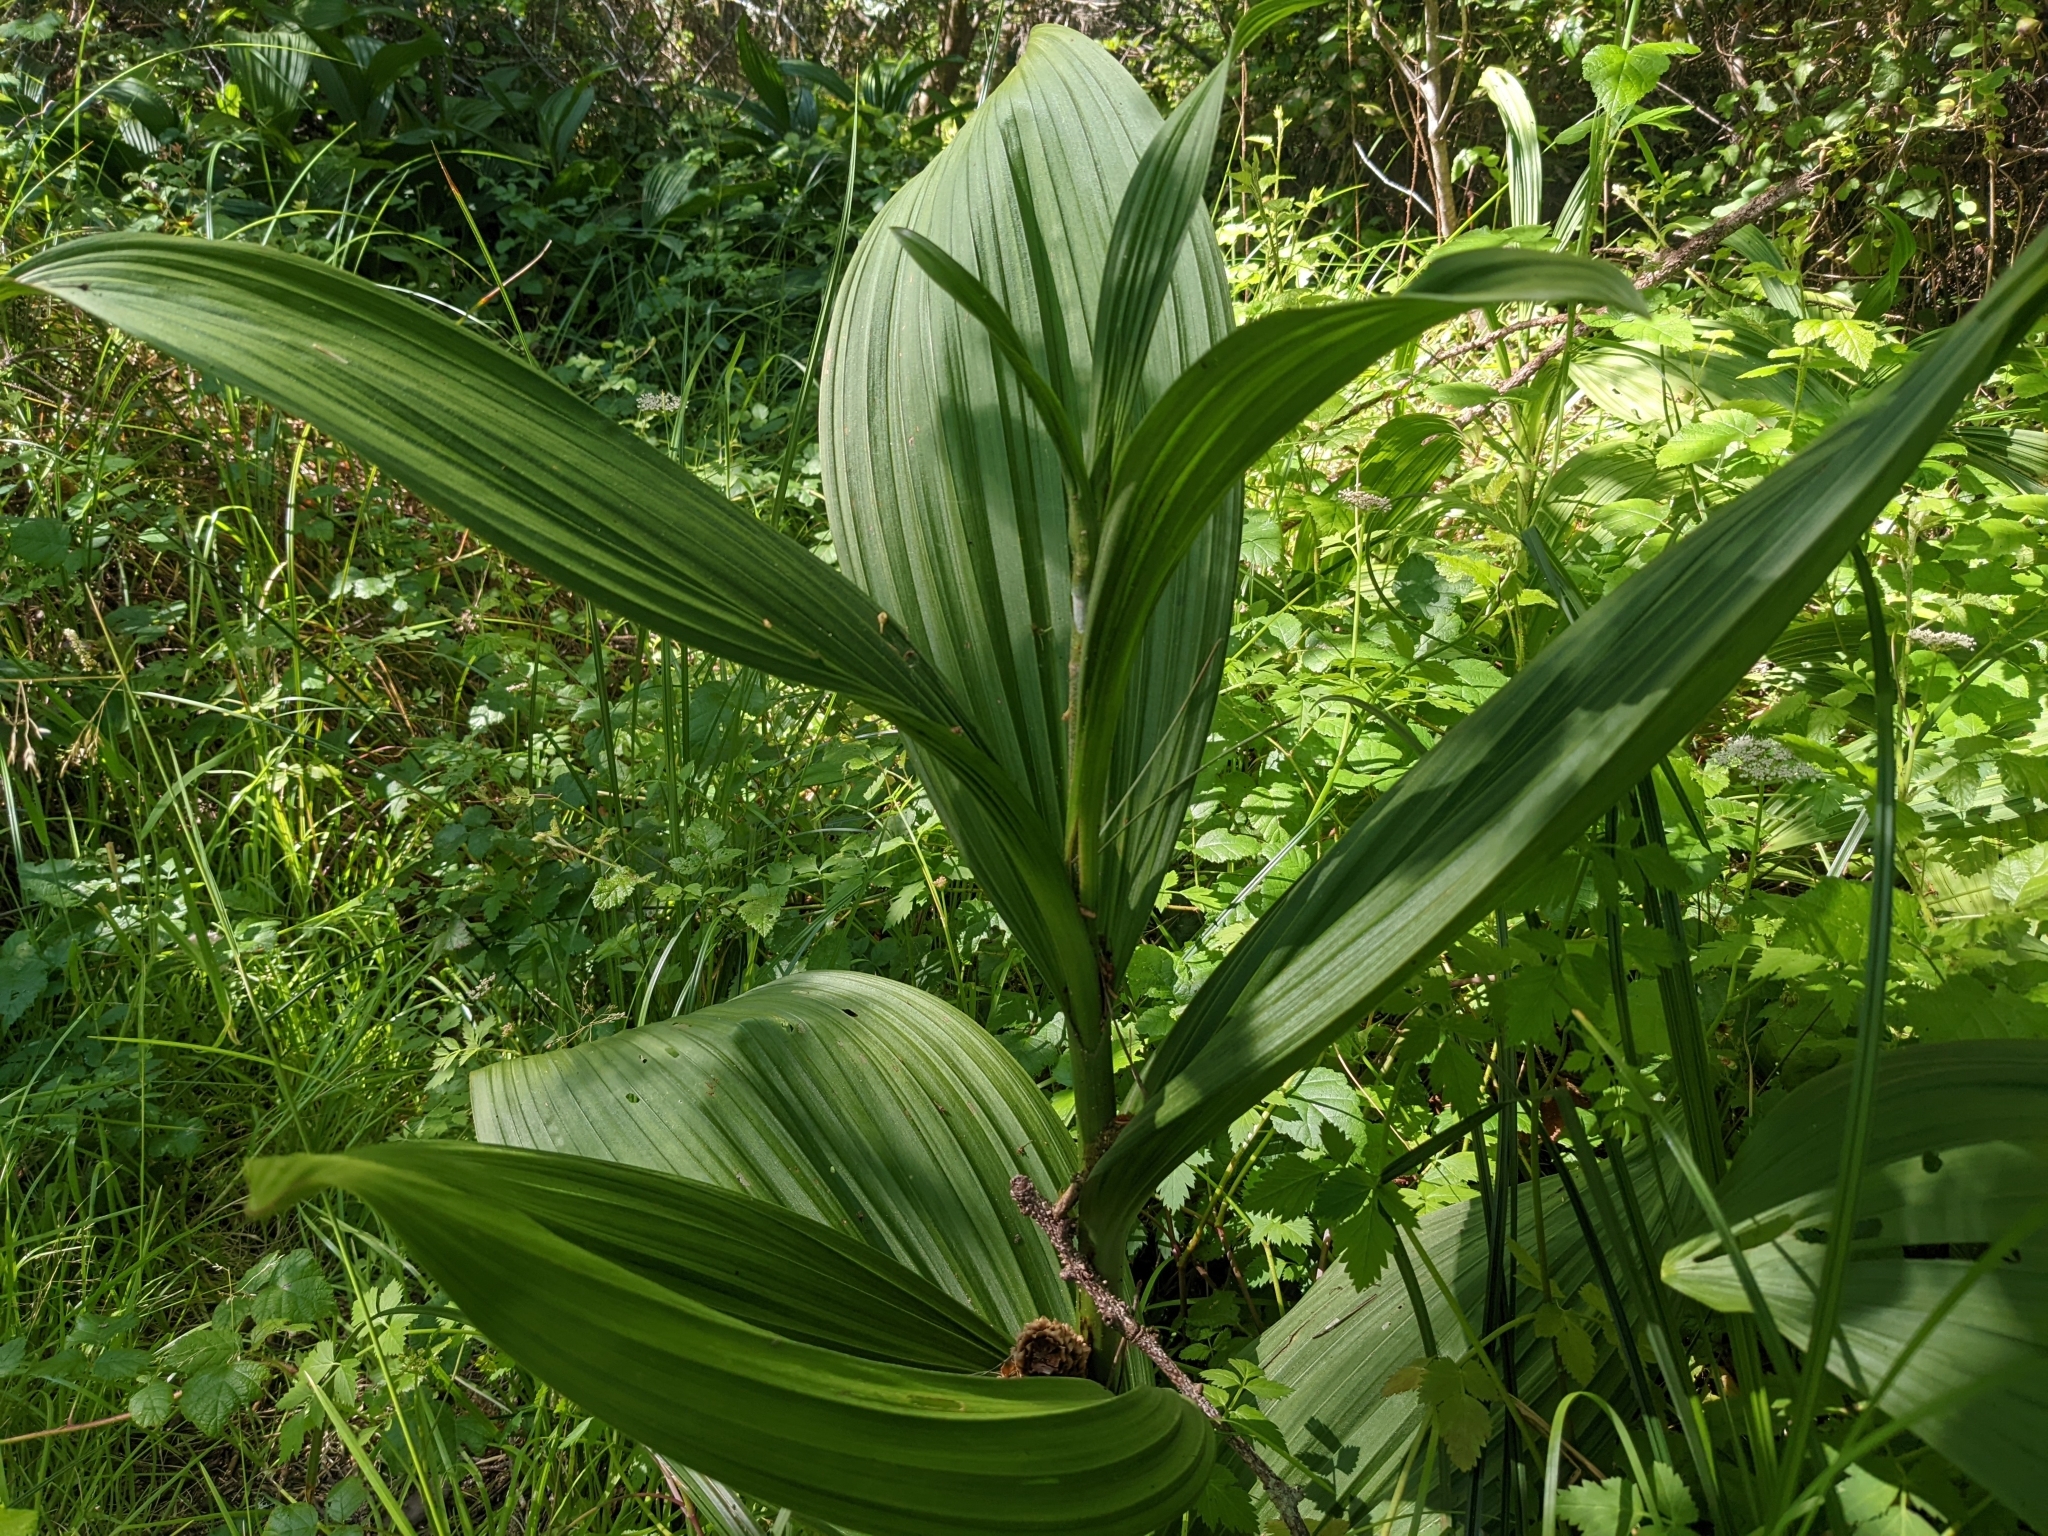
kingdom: Plantae
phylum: Tracheophyta
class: Liliopsida
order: Liliales
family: Melanthiaceae
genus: Veratrum
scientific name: Veratrum fimbriatum
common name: Fringe false hellobore
